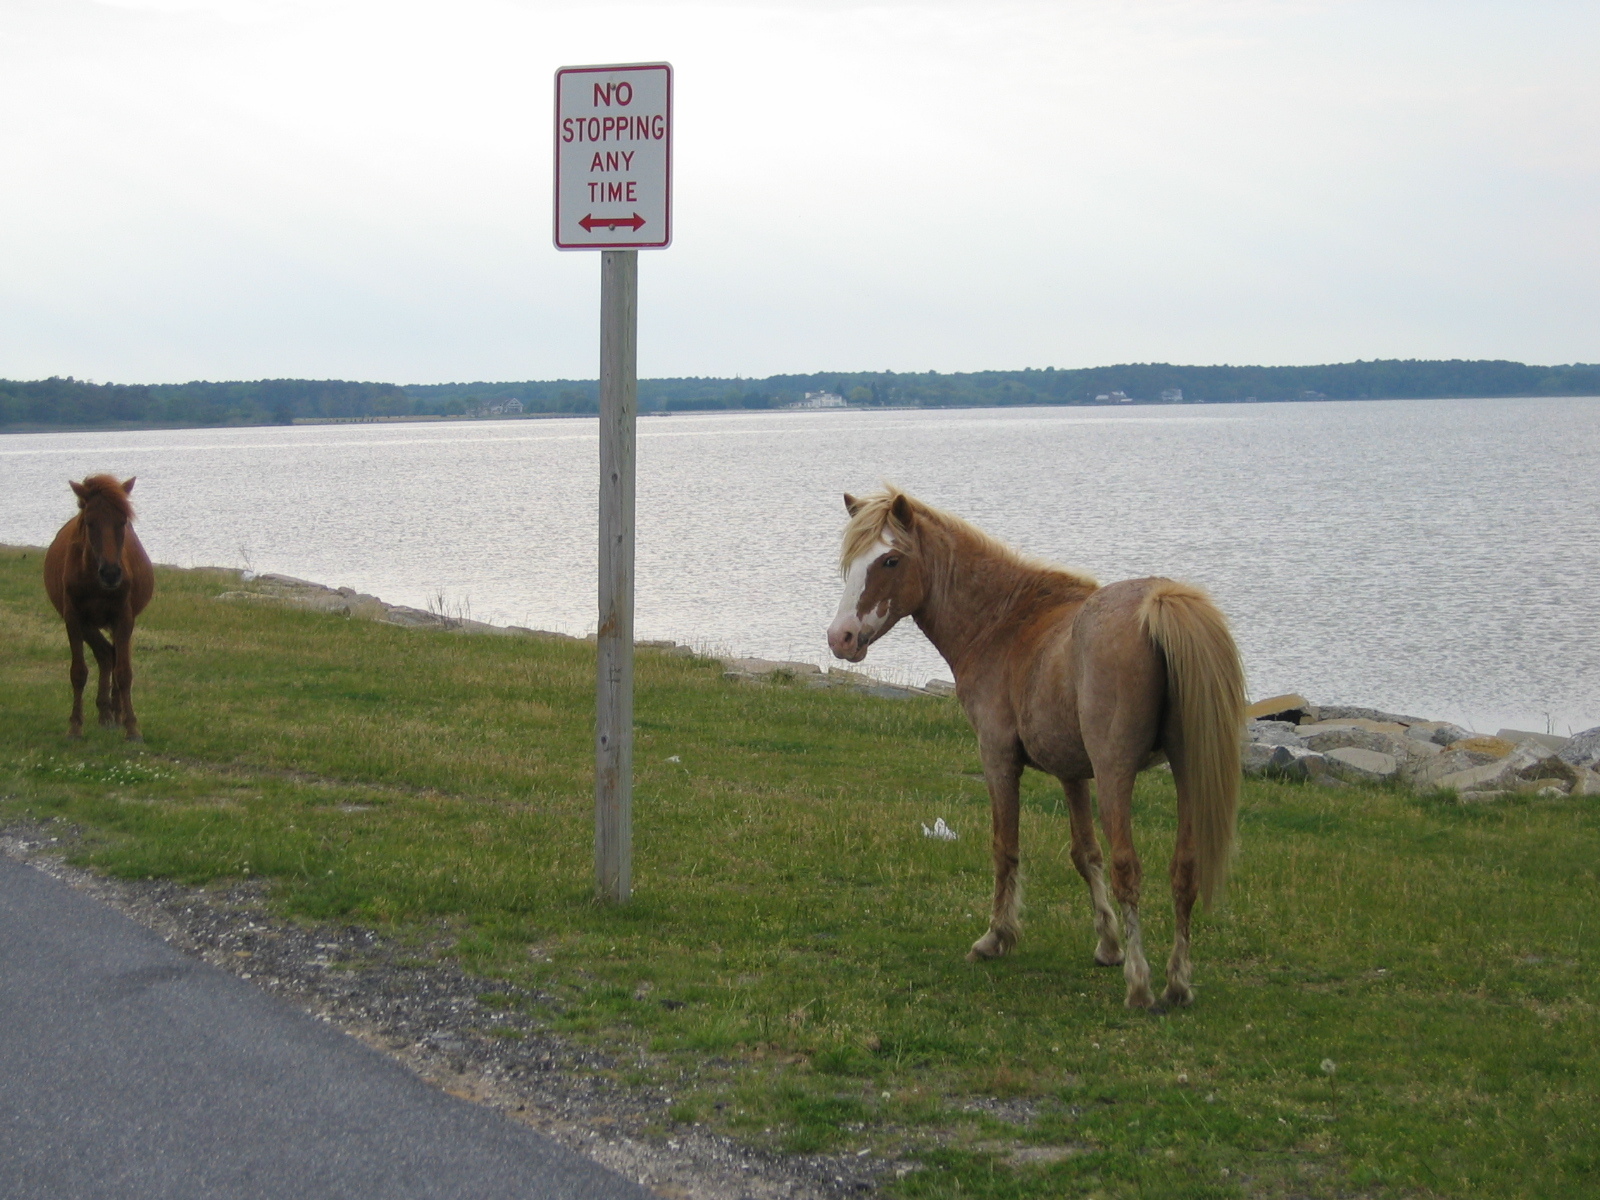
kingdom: Animalia
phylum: Chordata
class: Mammalia
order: Perissodactyla
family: Equidae
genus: Equus
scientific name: Equus caballus
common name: Horse
